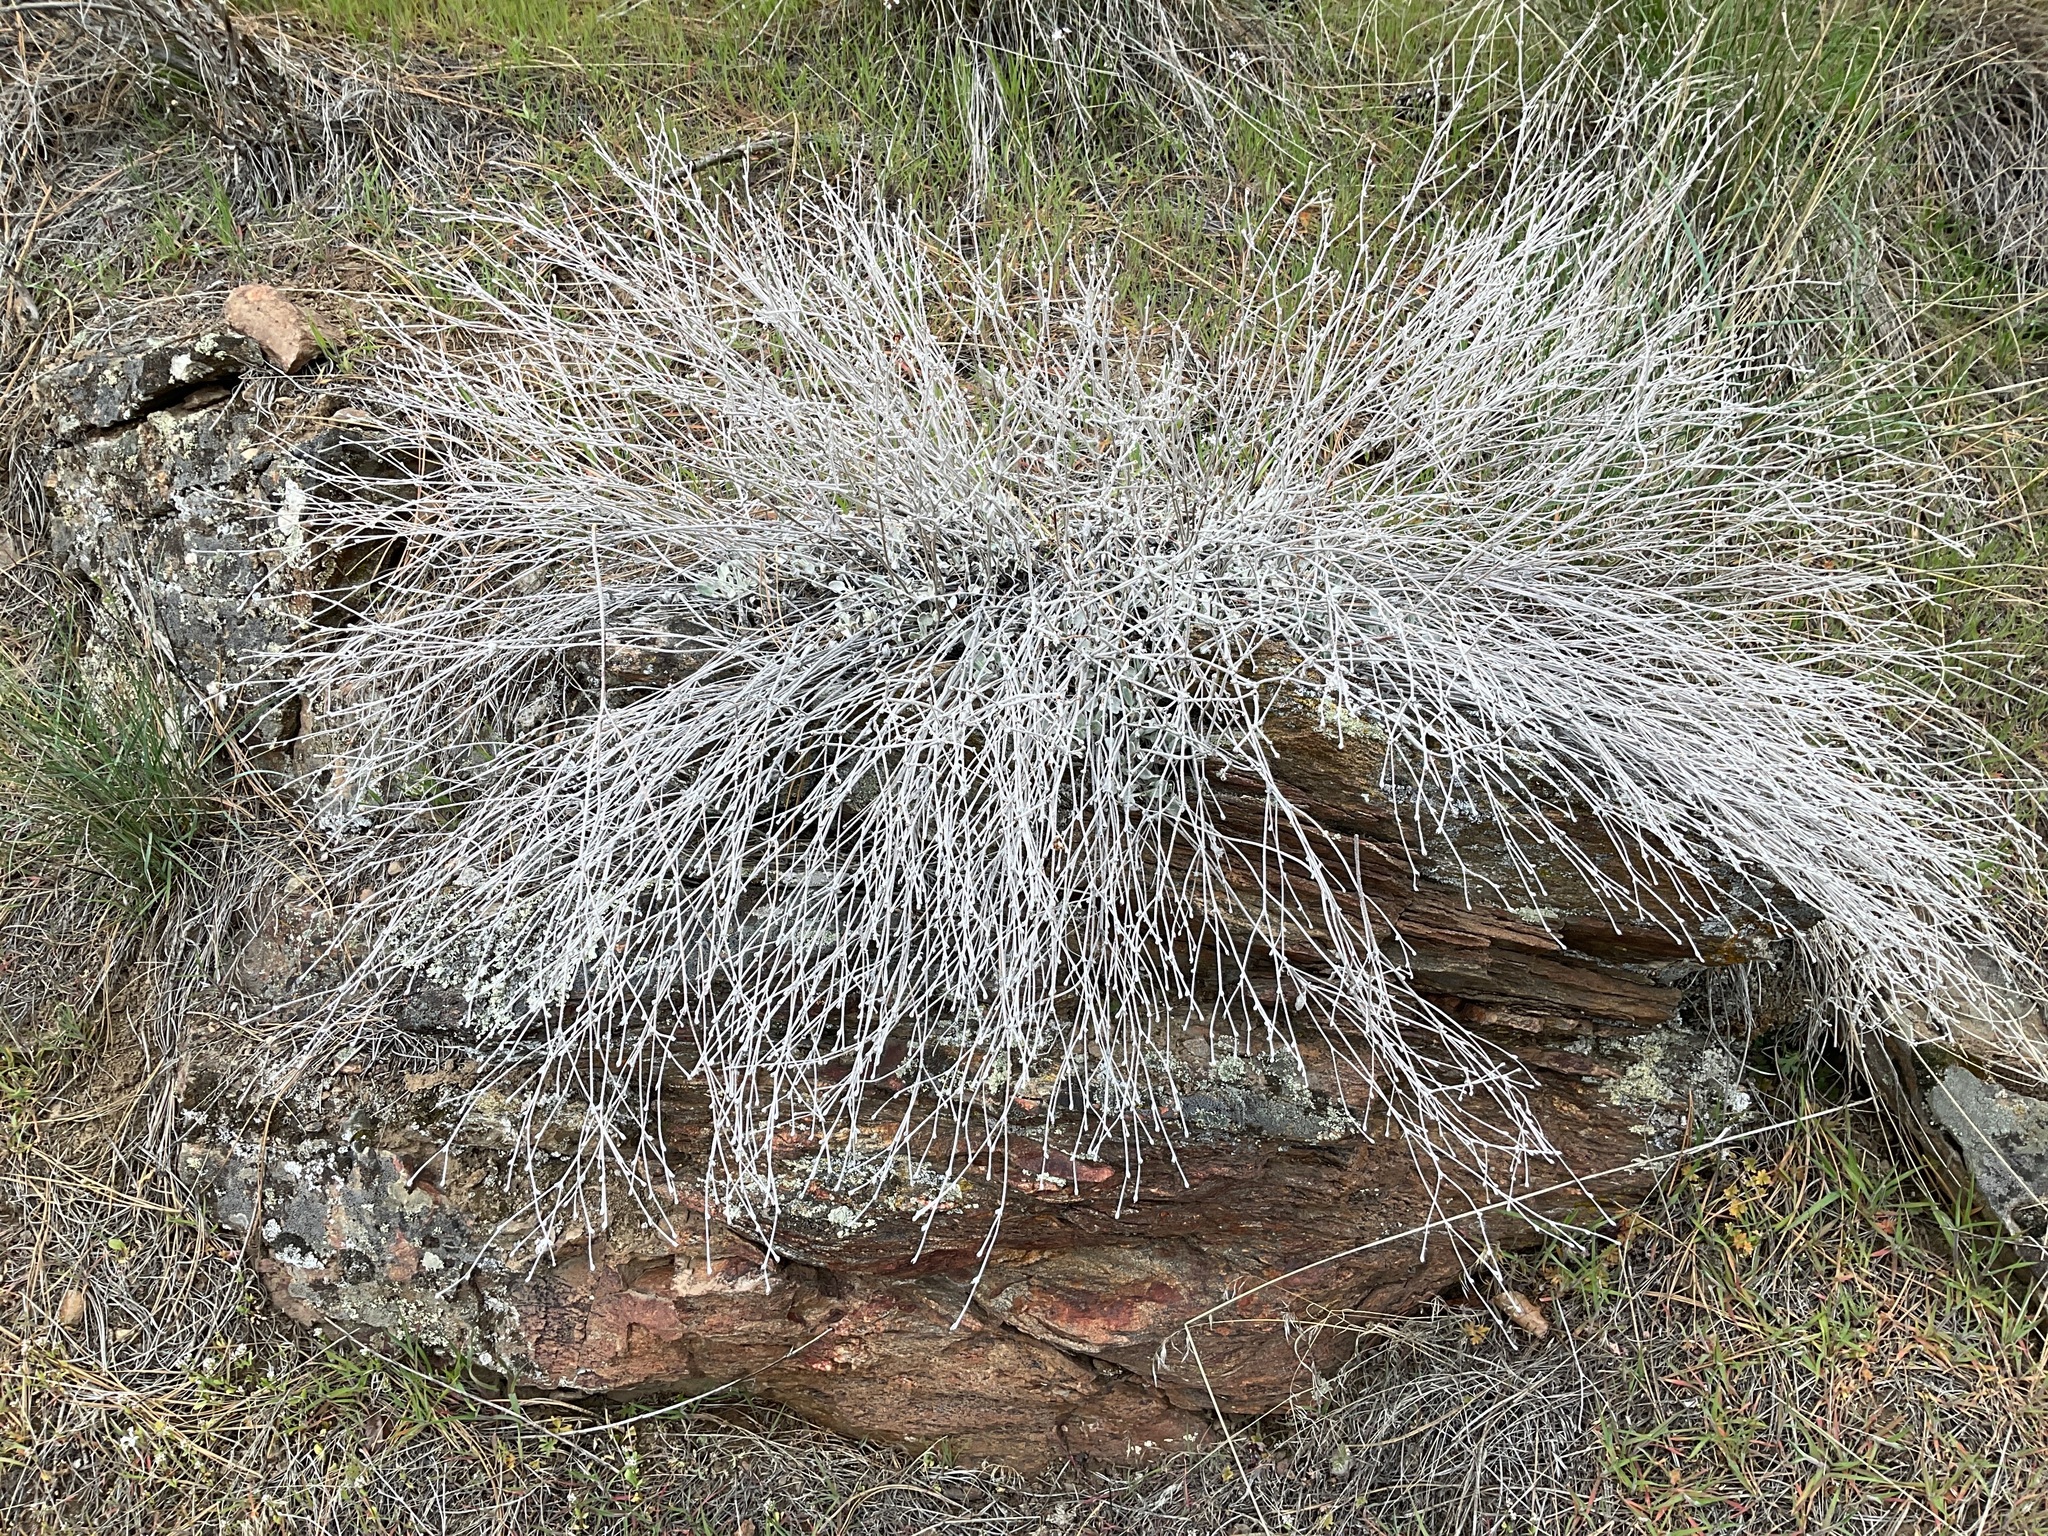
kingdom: Plantae
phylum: Tracheophyta
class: Magnoliopsida
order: Caryophyllales
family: Polygonaceae
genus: Eriogonum
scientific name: Eriogonum niveum
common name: Snow wild buckwheat
